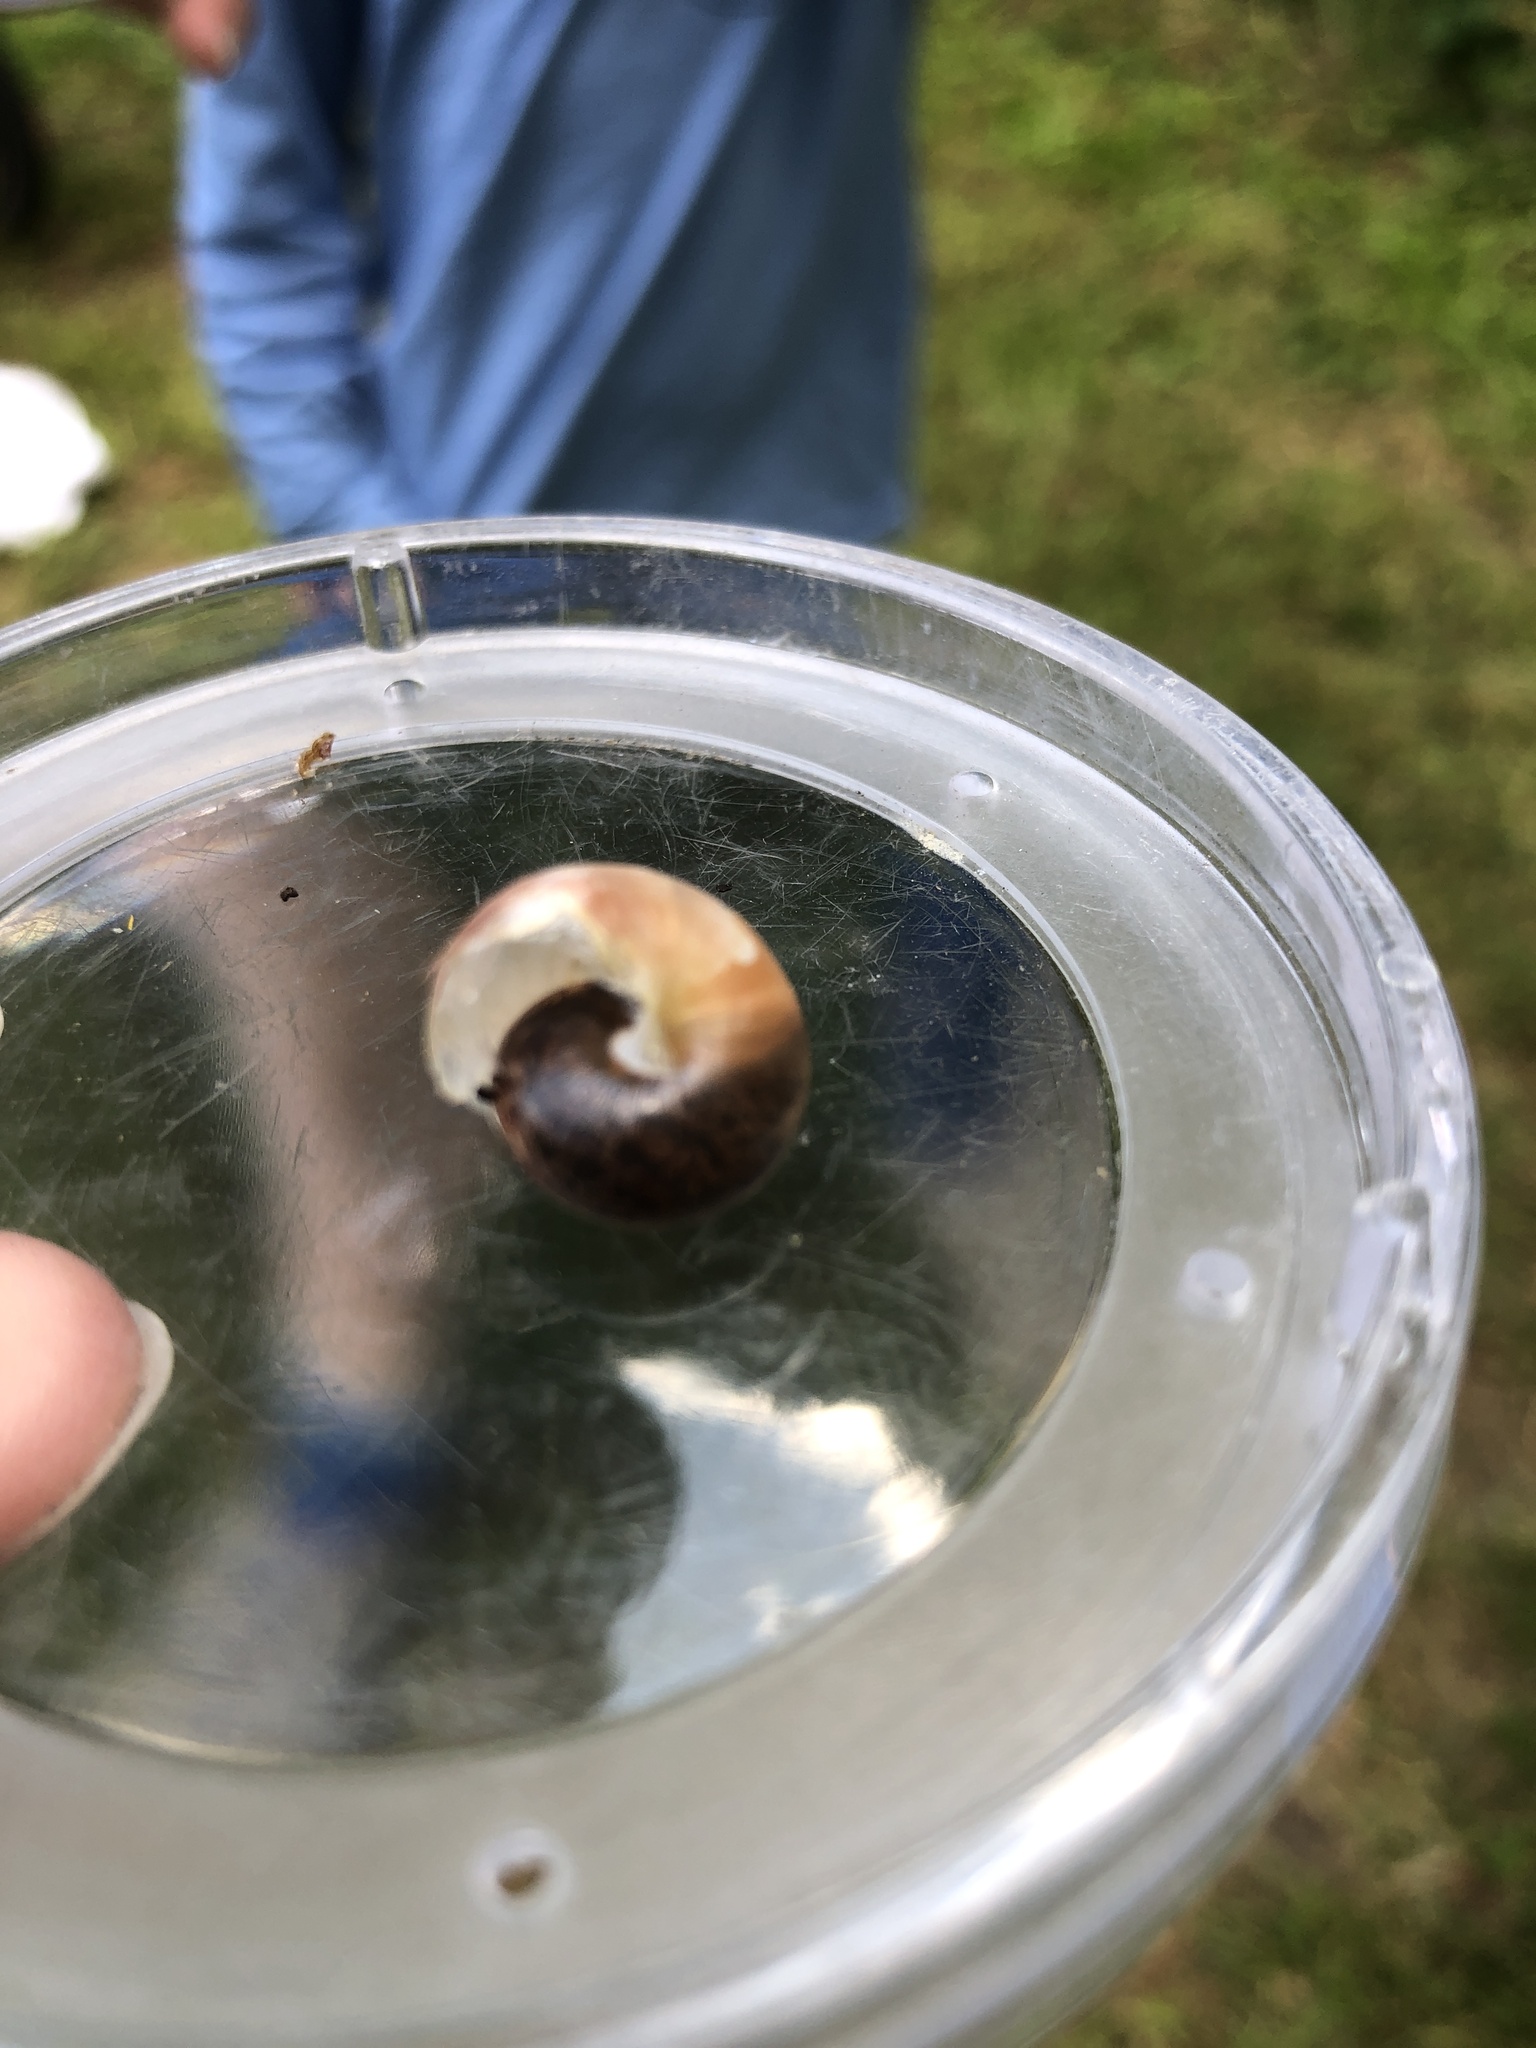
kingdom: Animalia
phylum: Mollusca
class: Gastropoda
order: Stylommatophora
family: Hygromiidae
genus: Monacha
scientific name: Monacha cantiana
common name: Kentish snail
